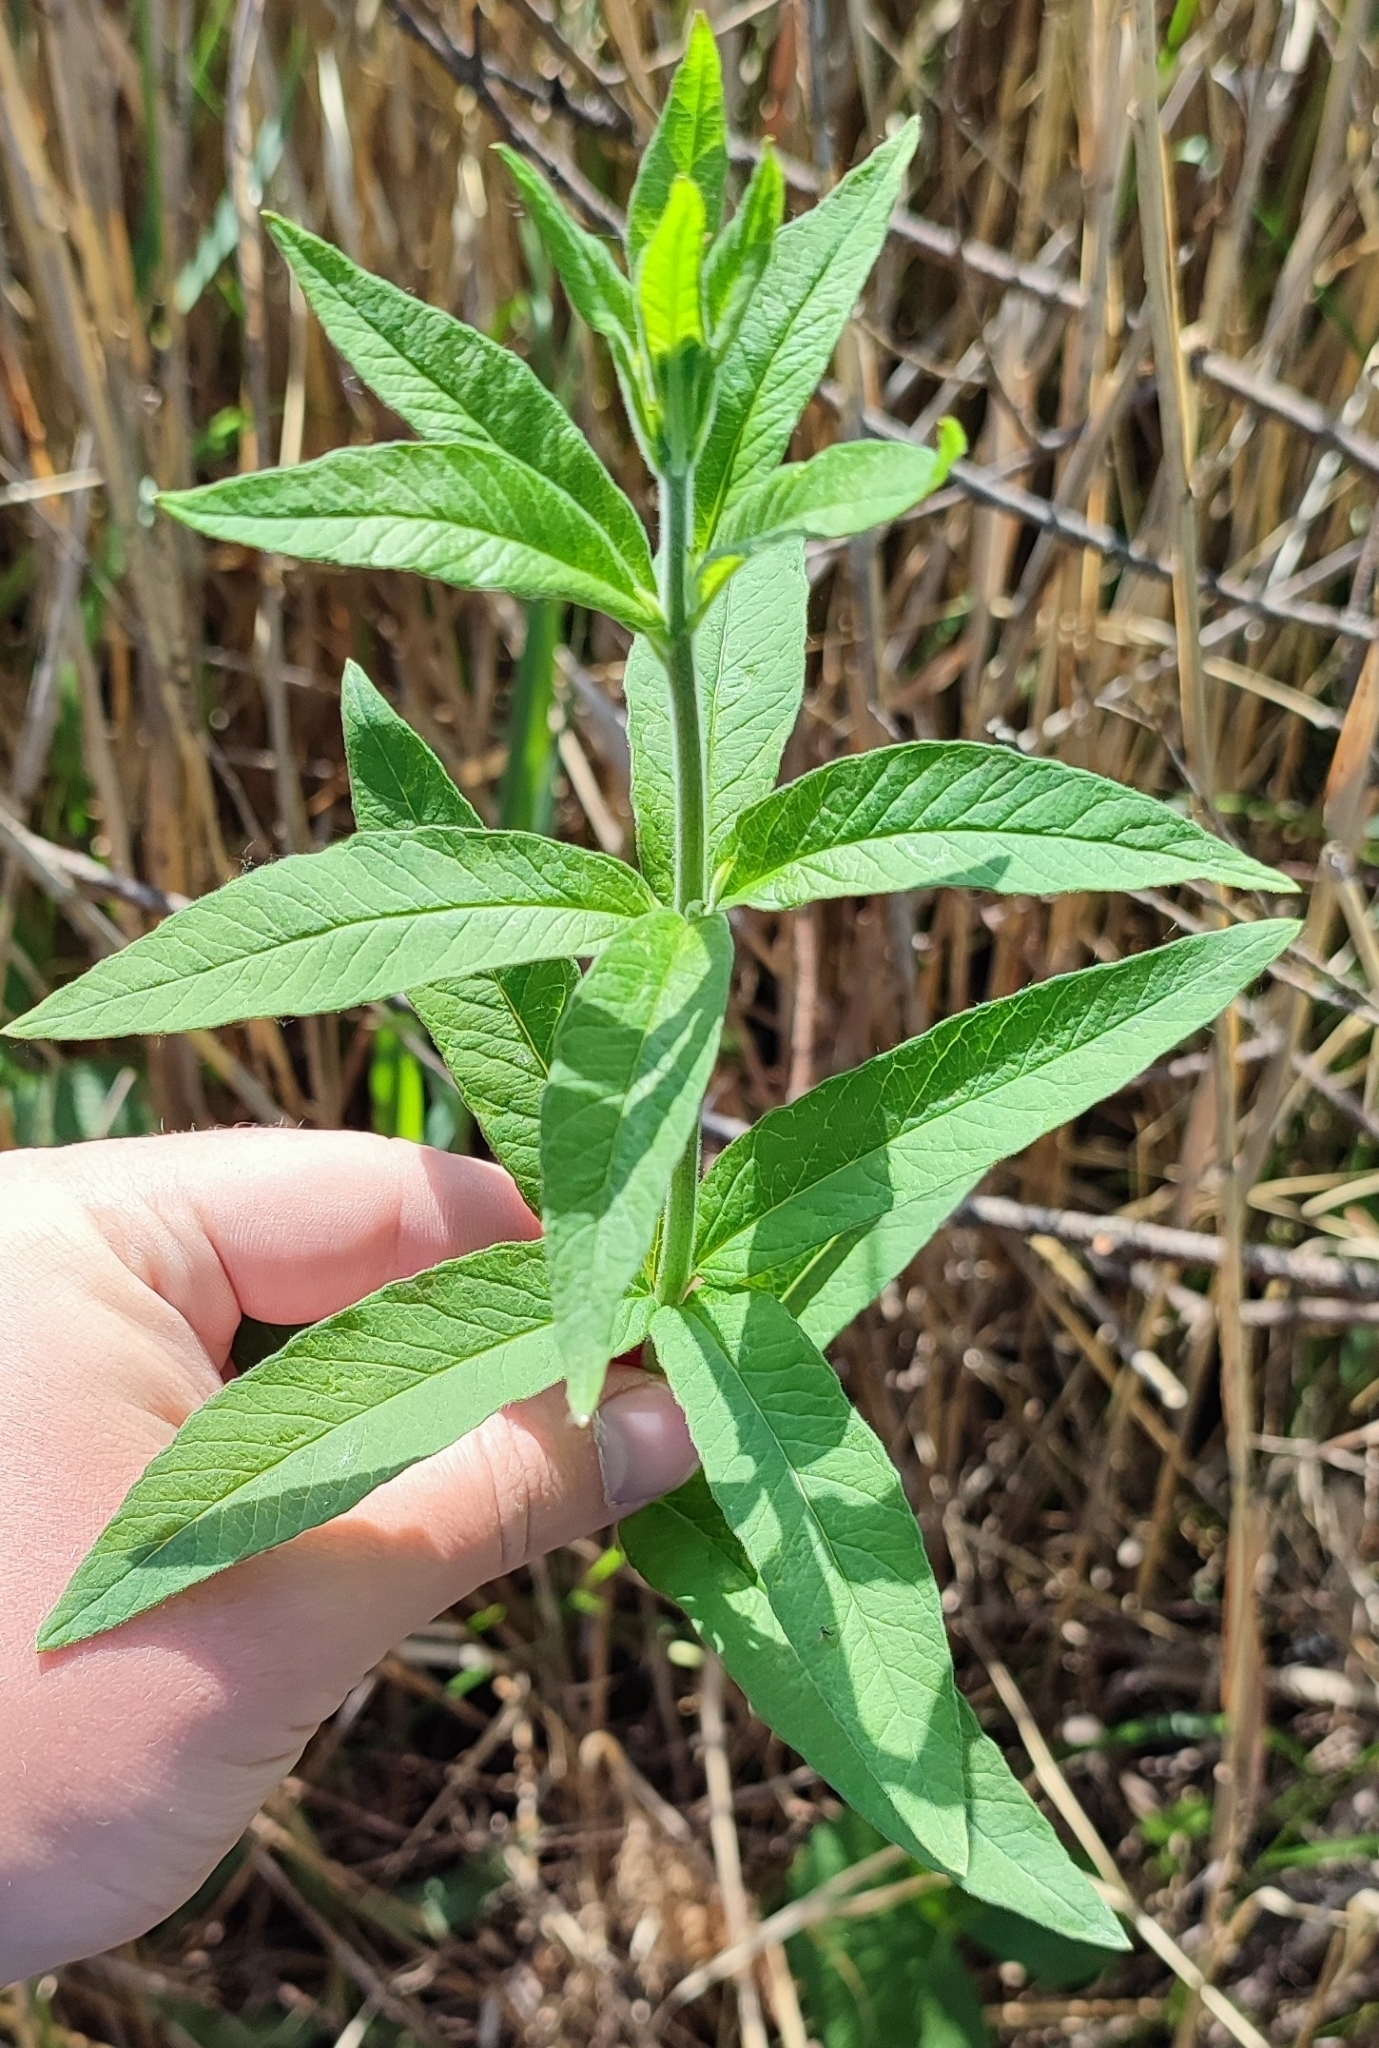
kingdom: Plantae
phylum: Tracheophyta
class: Magnoliopsida
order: Ericales
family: Primulaceae
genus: Lysimachia
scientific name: Lysimachia vulgaris
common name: Yellow loosestrife
